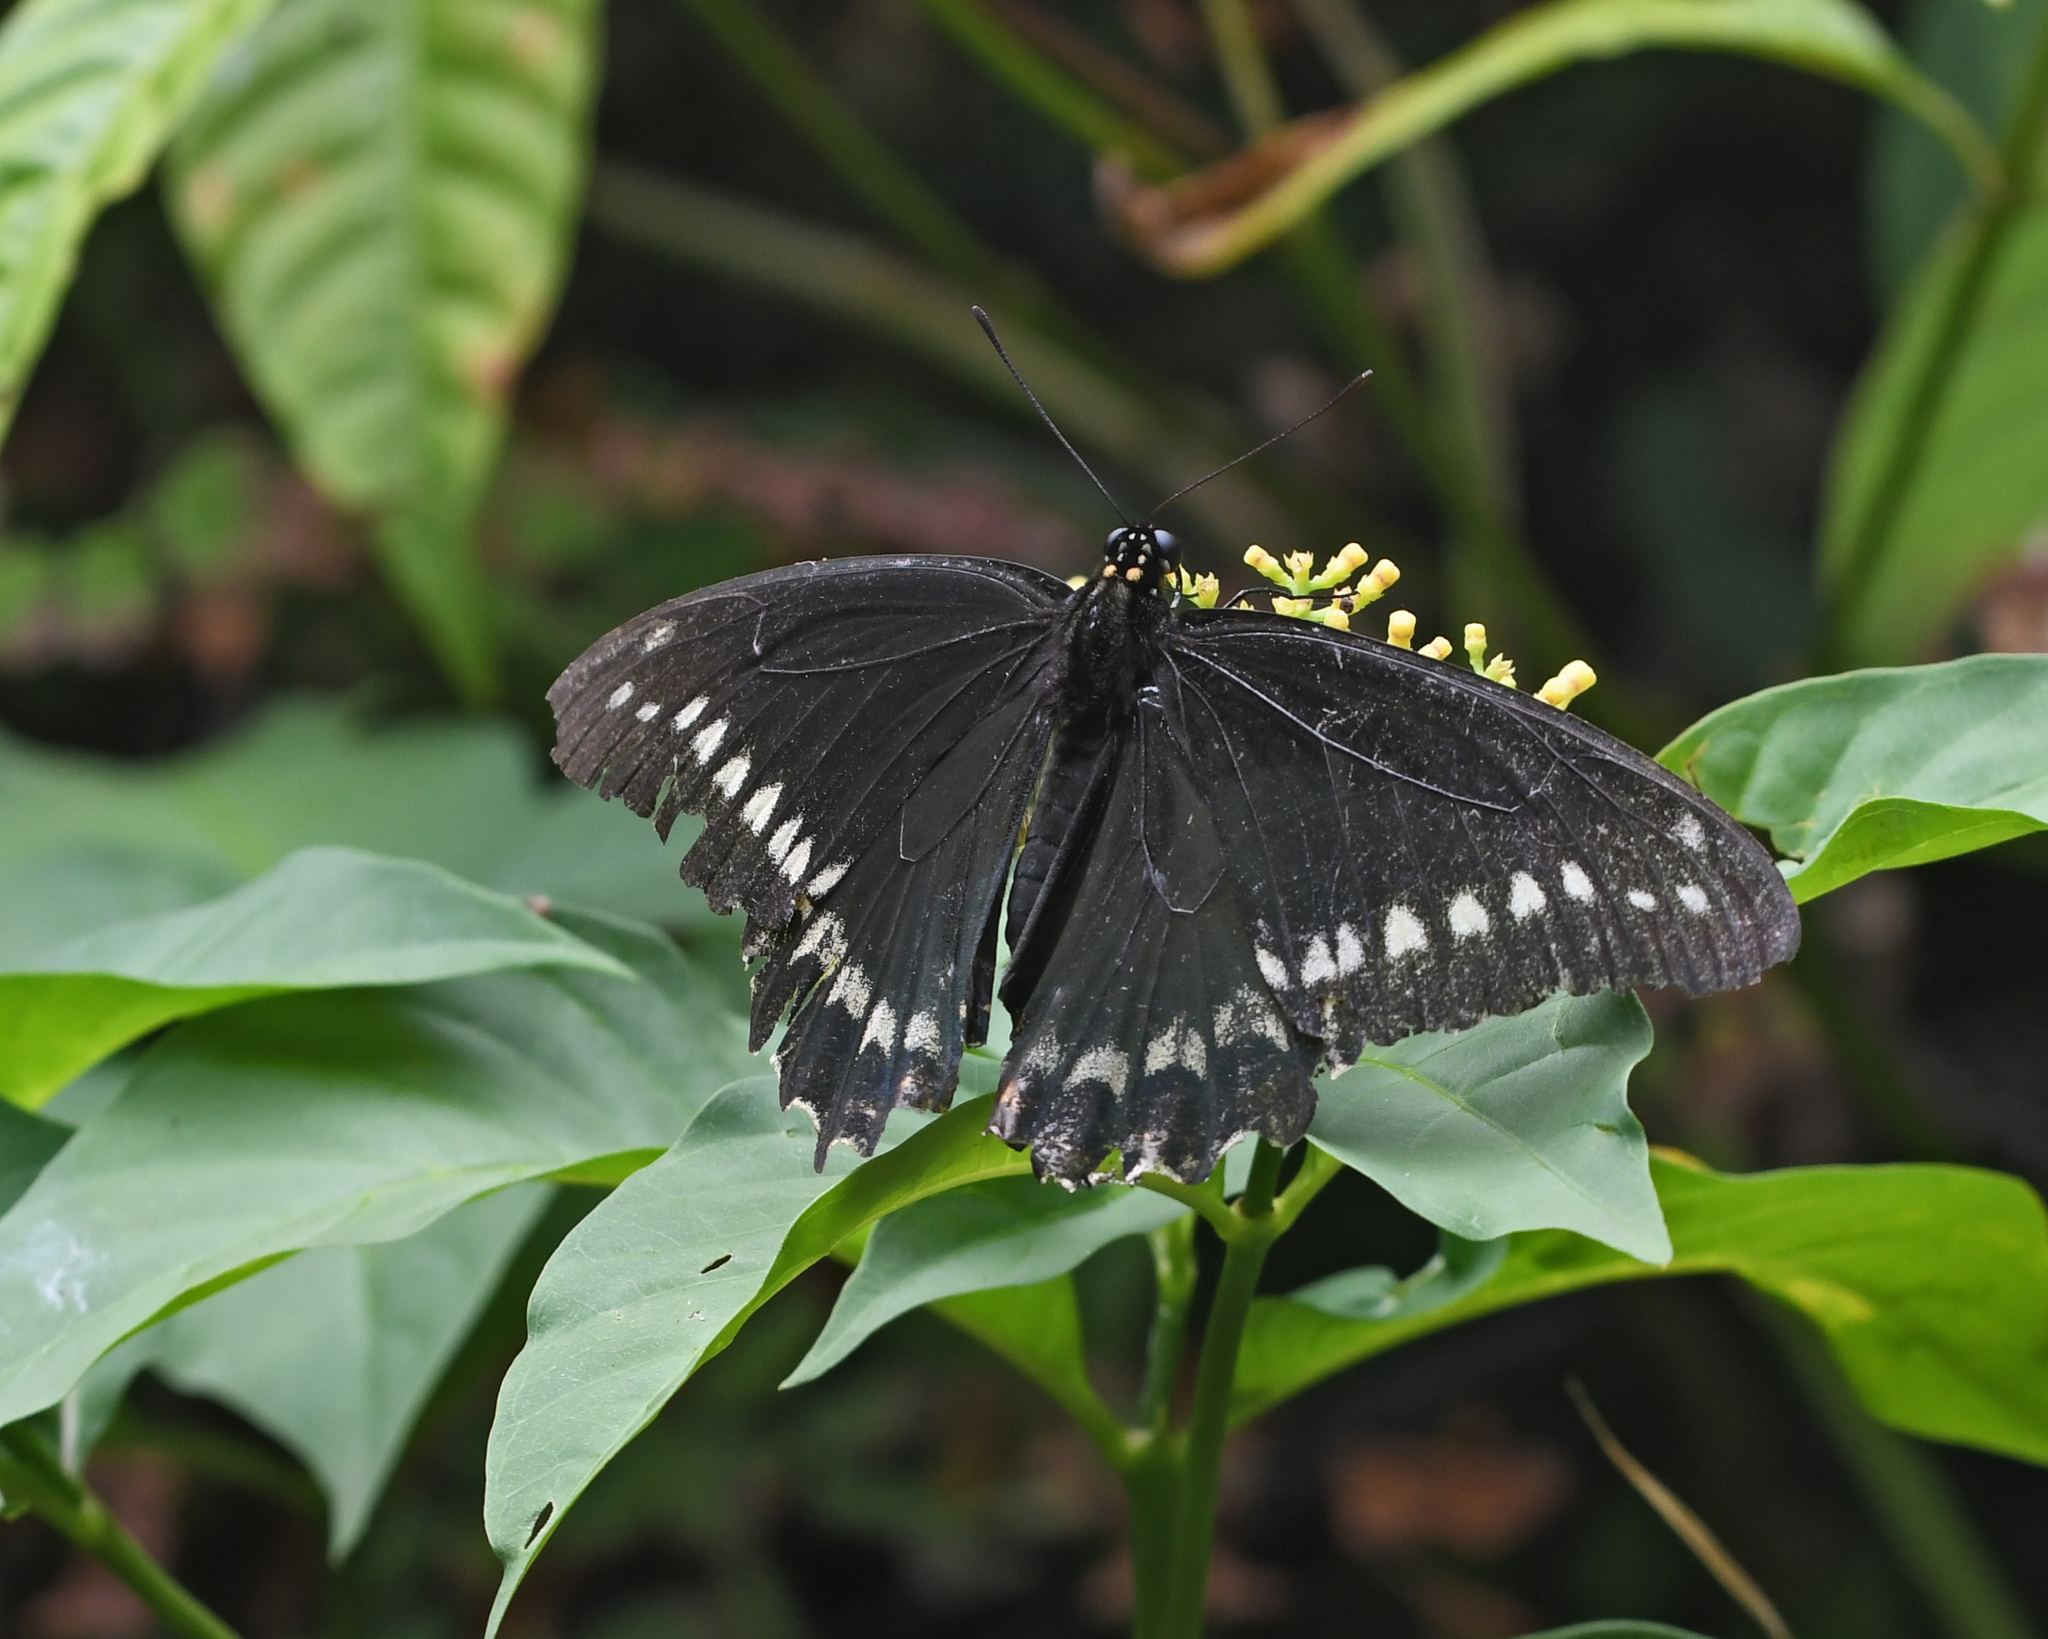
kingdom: Animalia
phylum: Arthropoda
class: Insecta
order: Lepidoptera
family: Papilionidae
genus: Battus
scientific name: Battus polydamas
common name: Polydamas swallowtail
